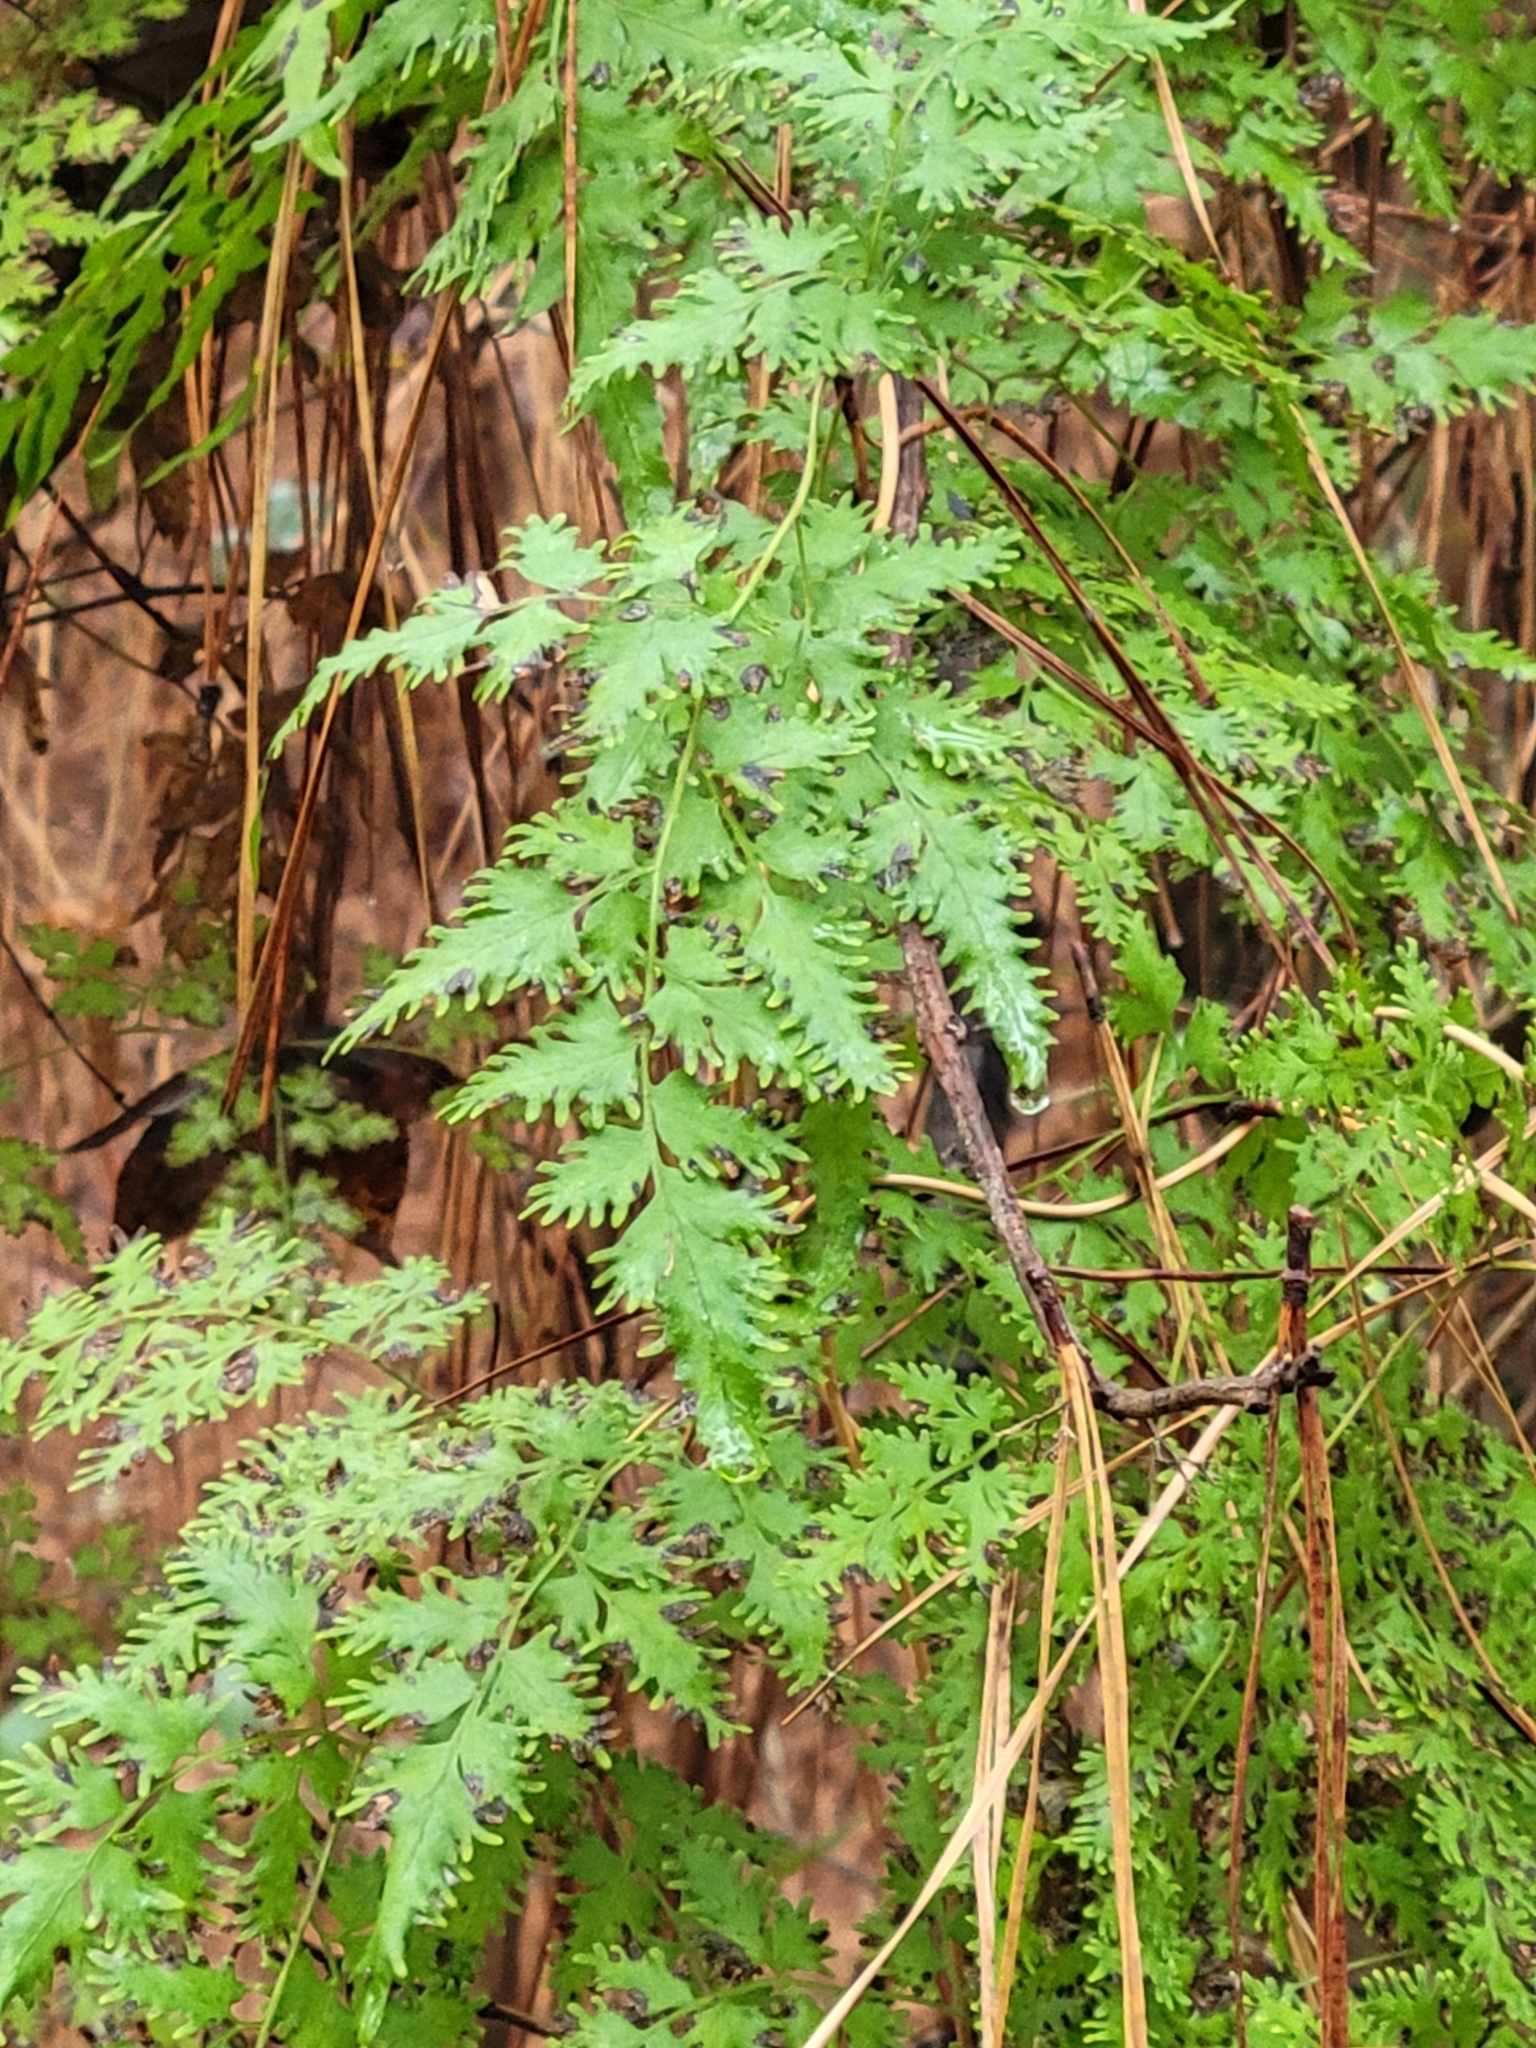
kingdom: Plantae
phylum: Tracheophyta
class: Polypodiopsida
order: Schizaeales
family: Lygodiaceae
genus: Lygodium
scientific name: Lygodium japonicum
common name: Japanese climbing fern
